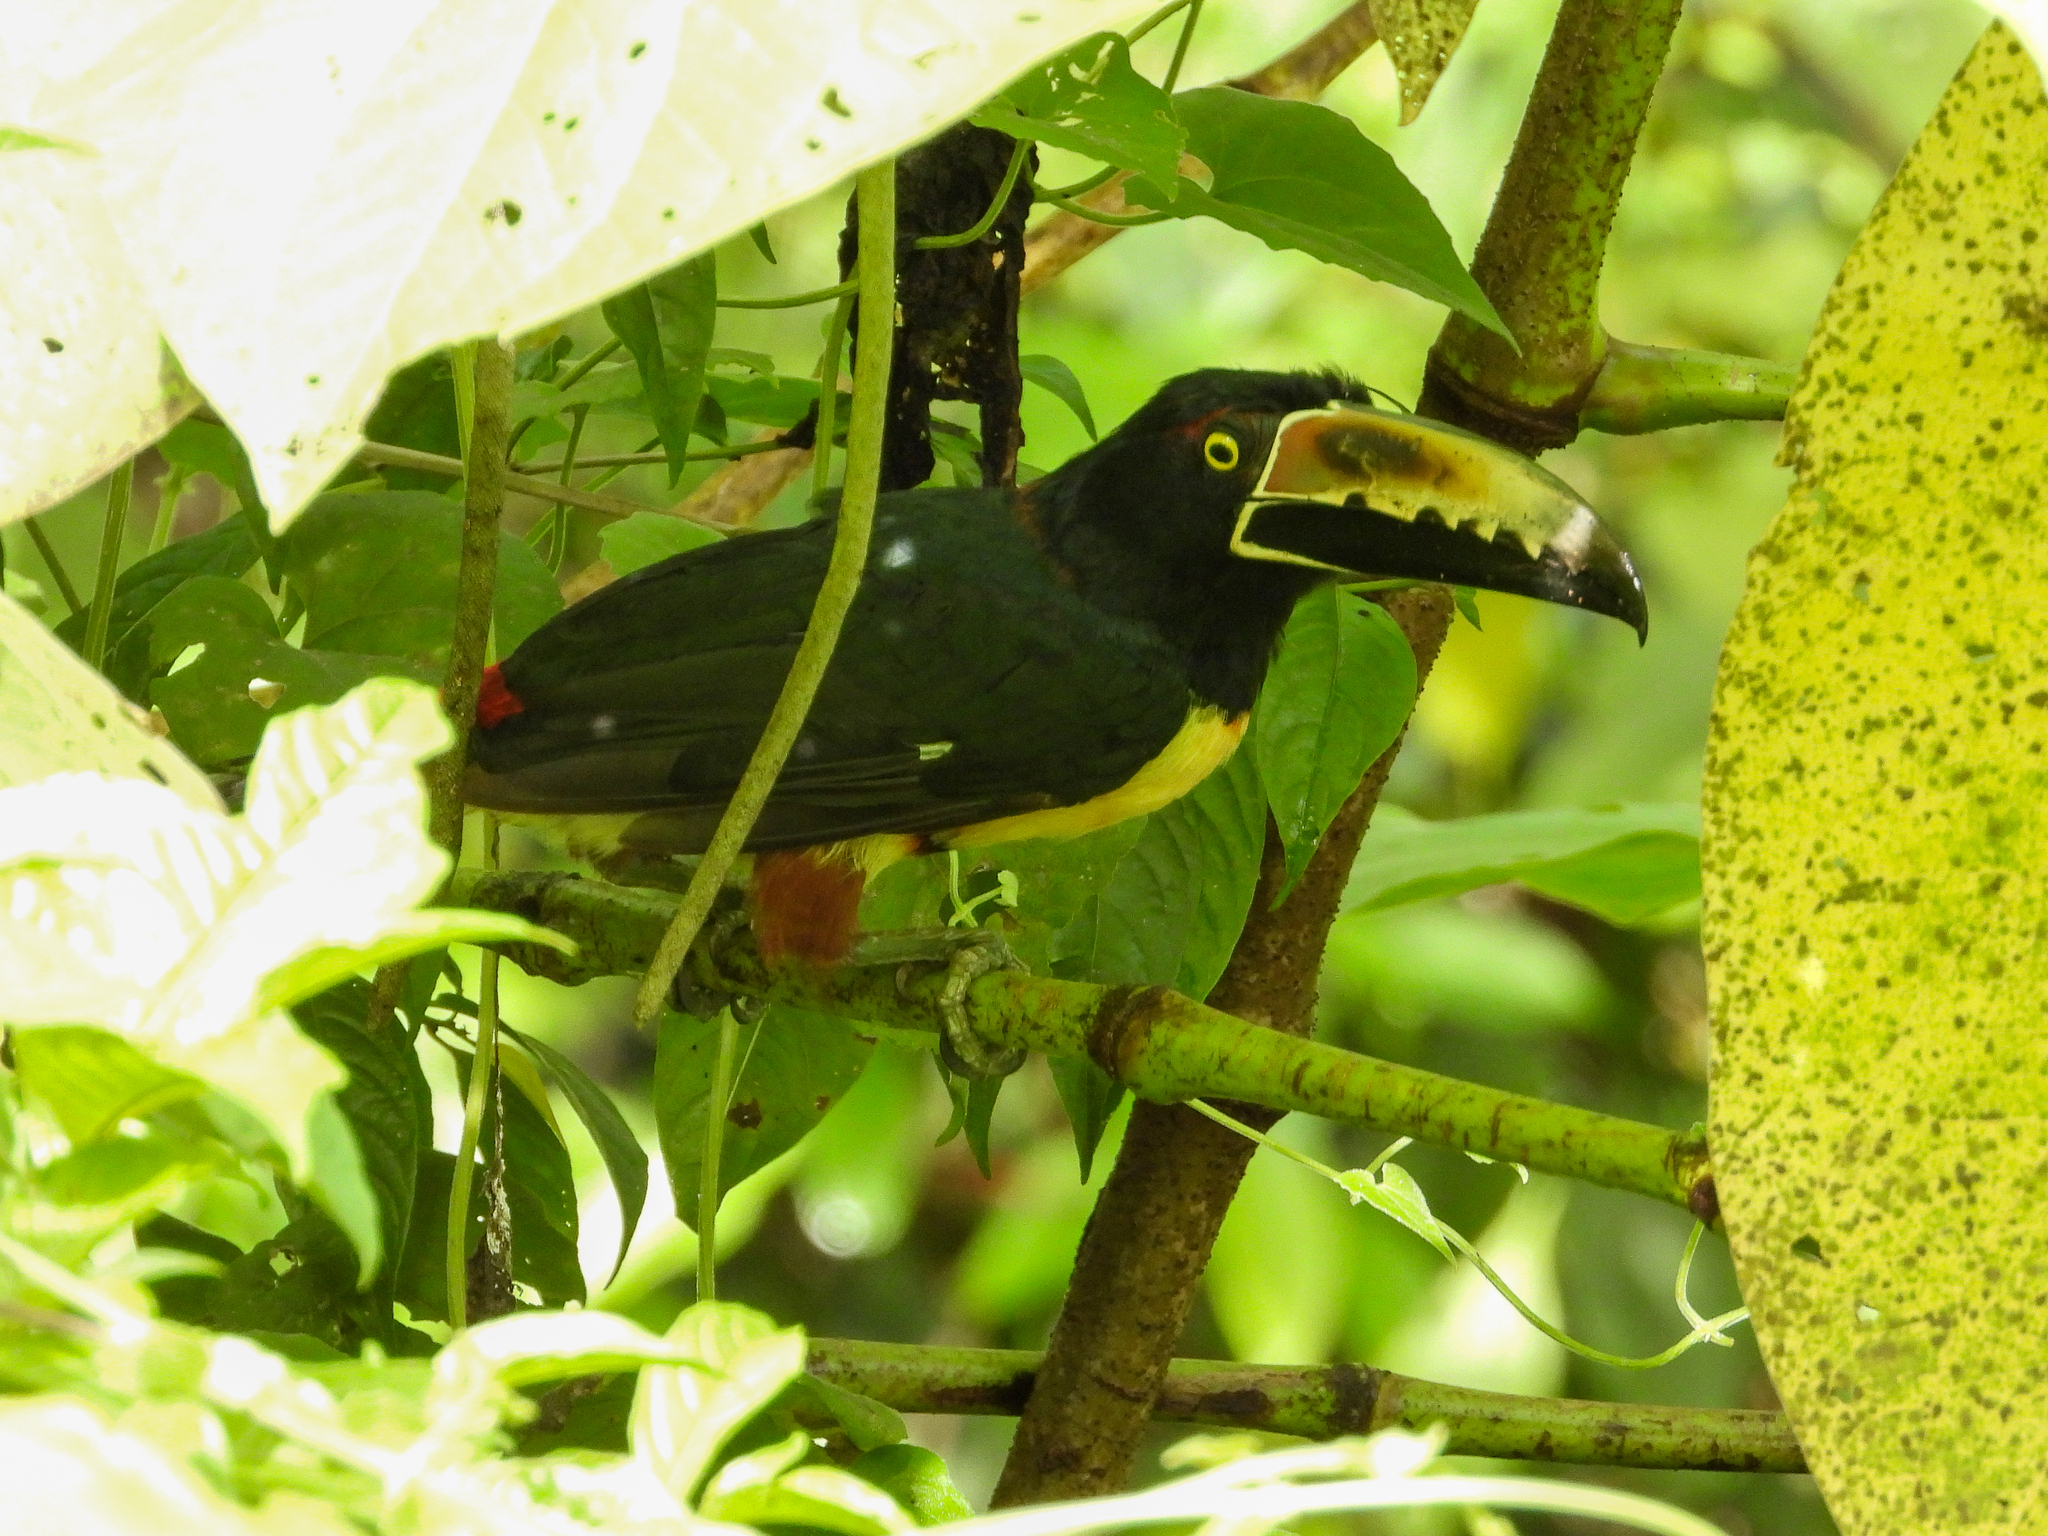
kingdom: Animalia
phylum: Chordata
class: Aves
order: Piciformes
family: Ramphastidae
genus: Pteroglossus
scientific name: Pteroglossus torquatus
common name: Collared aracari
